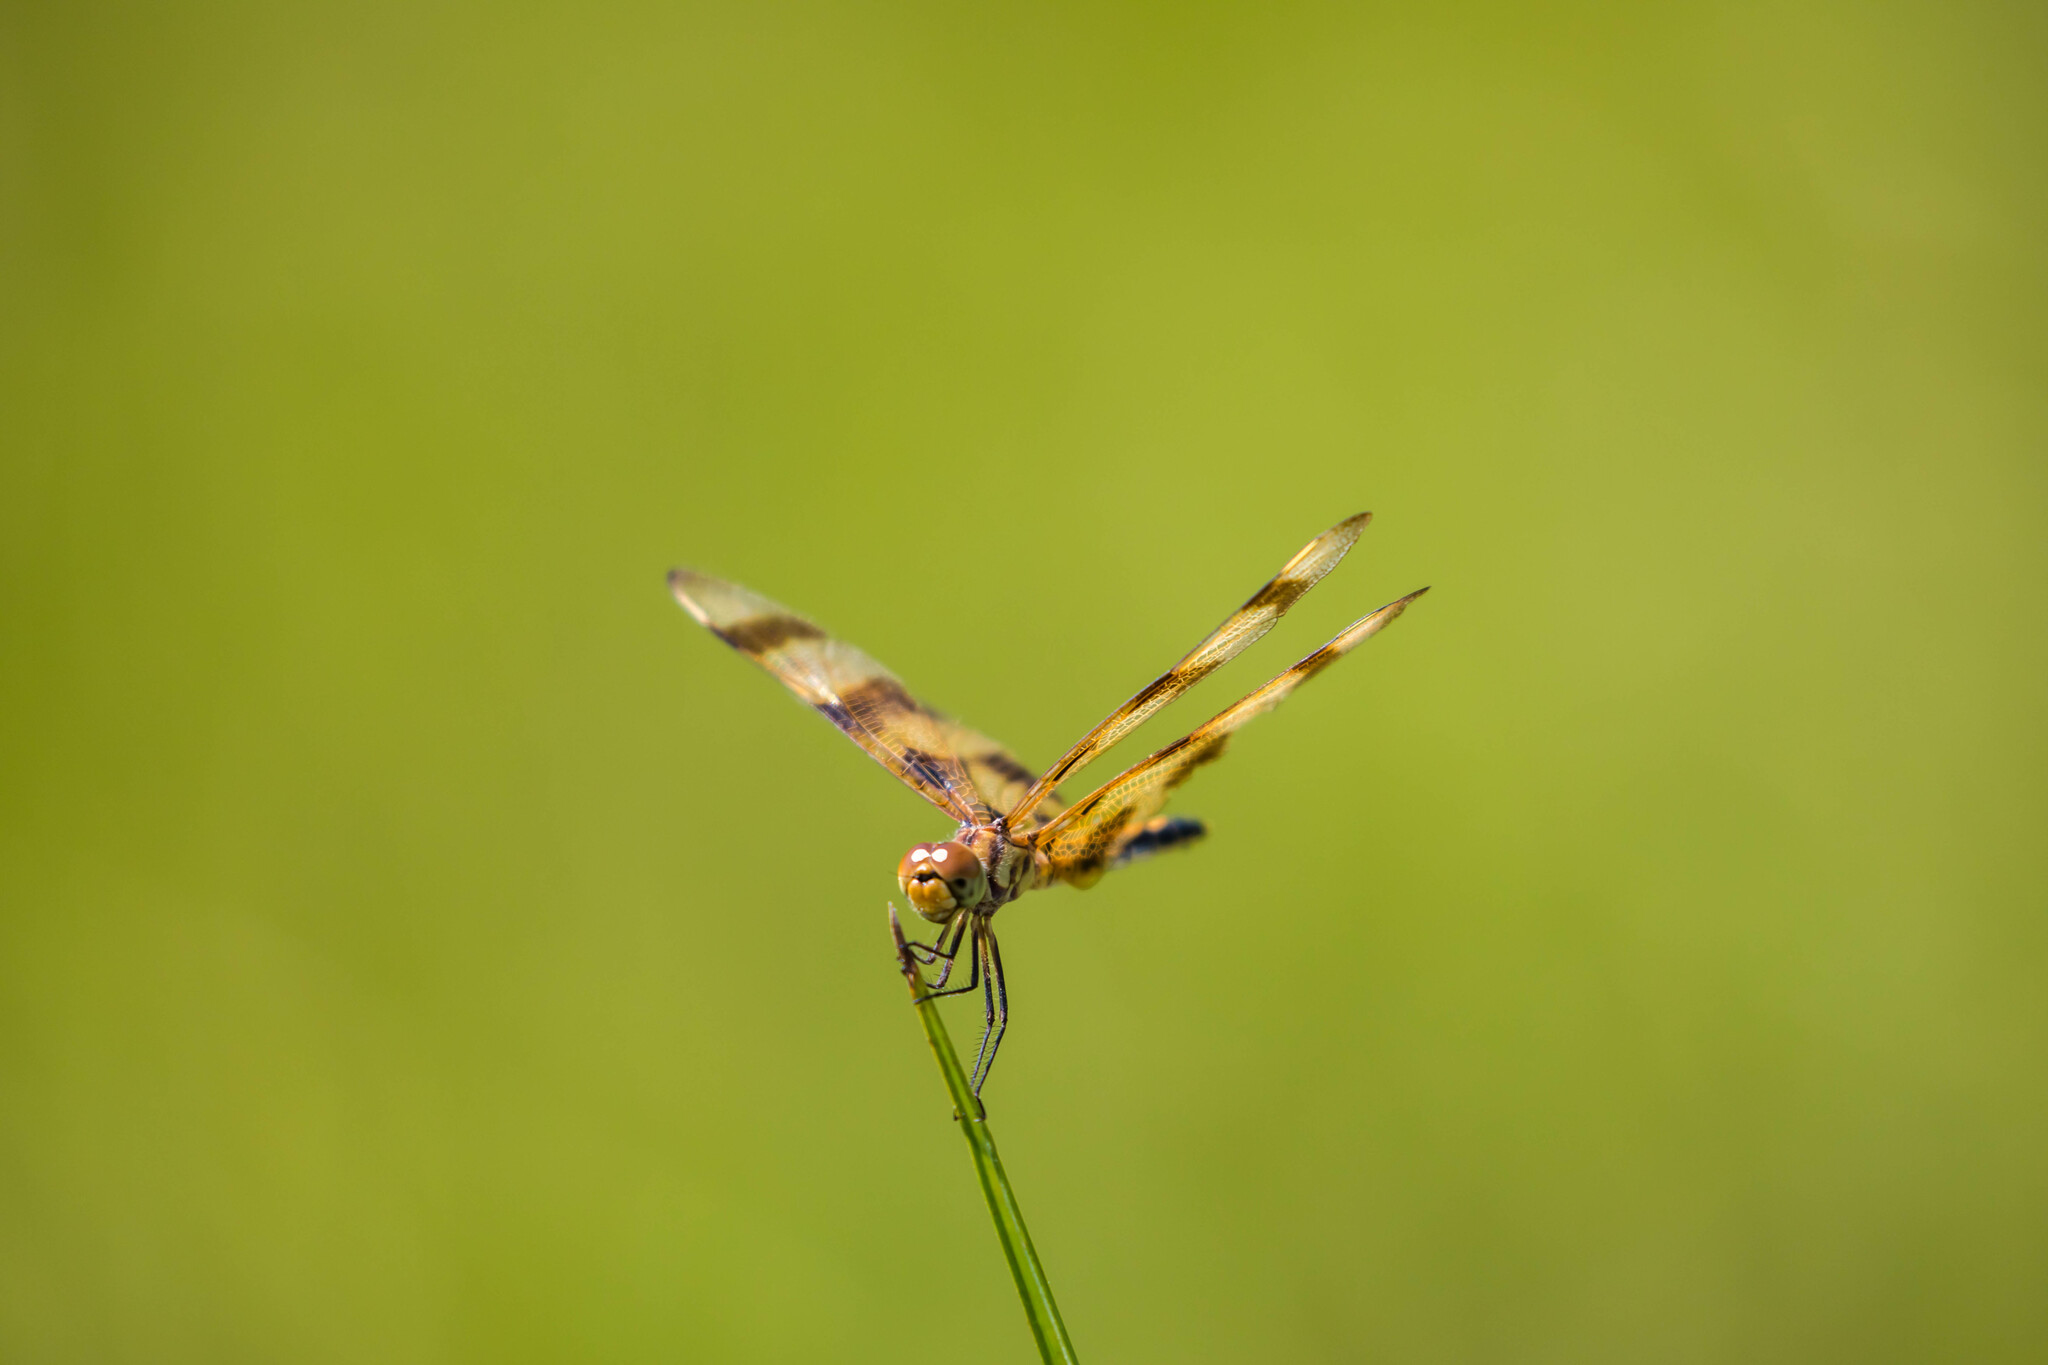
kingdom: Animalia
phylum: Arthropoda
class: Insecta
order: Odonata
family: Libellulidae
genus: Celithemis
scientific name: Celithemis eponina
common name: Halloween pennant
